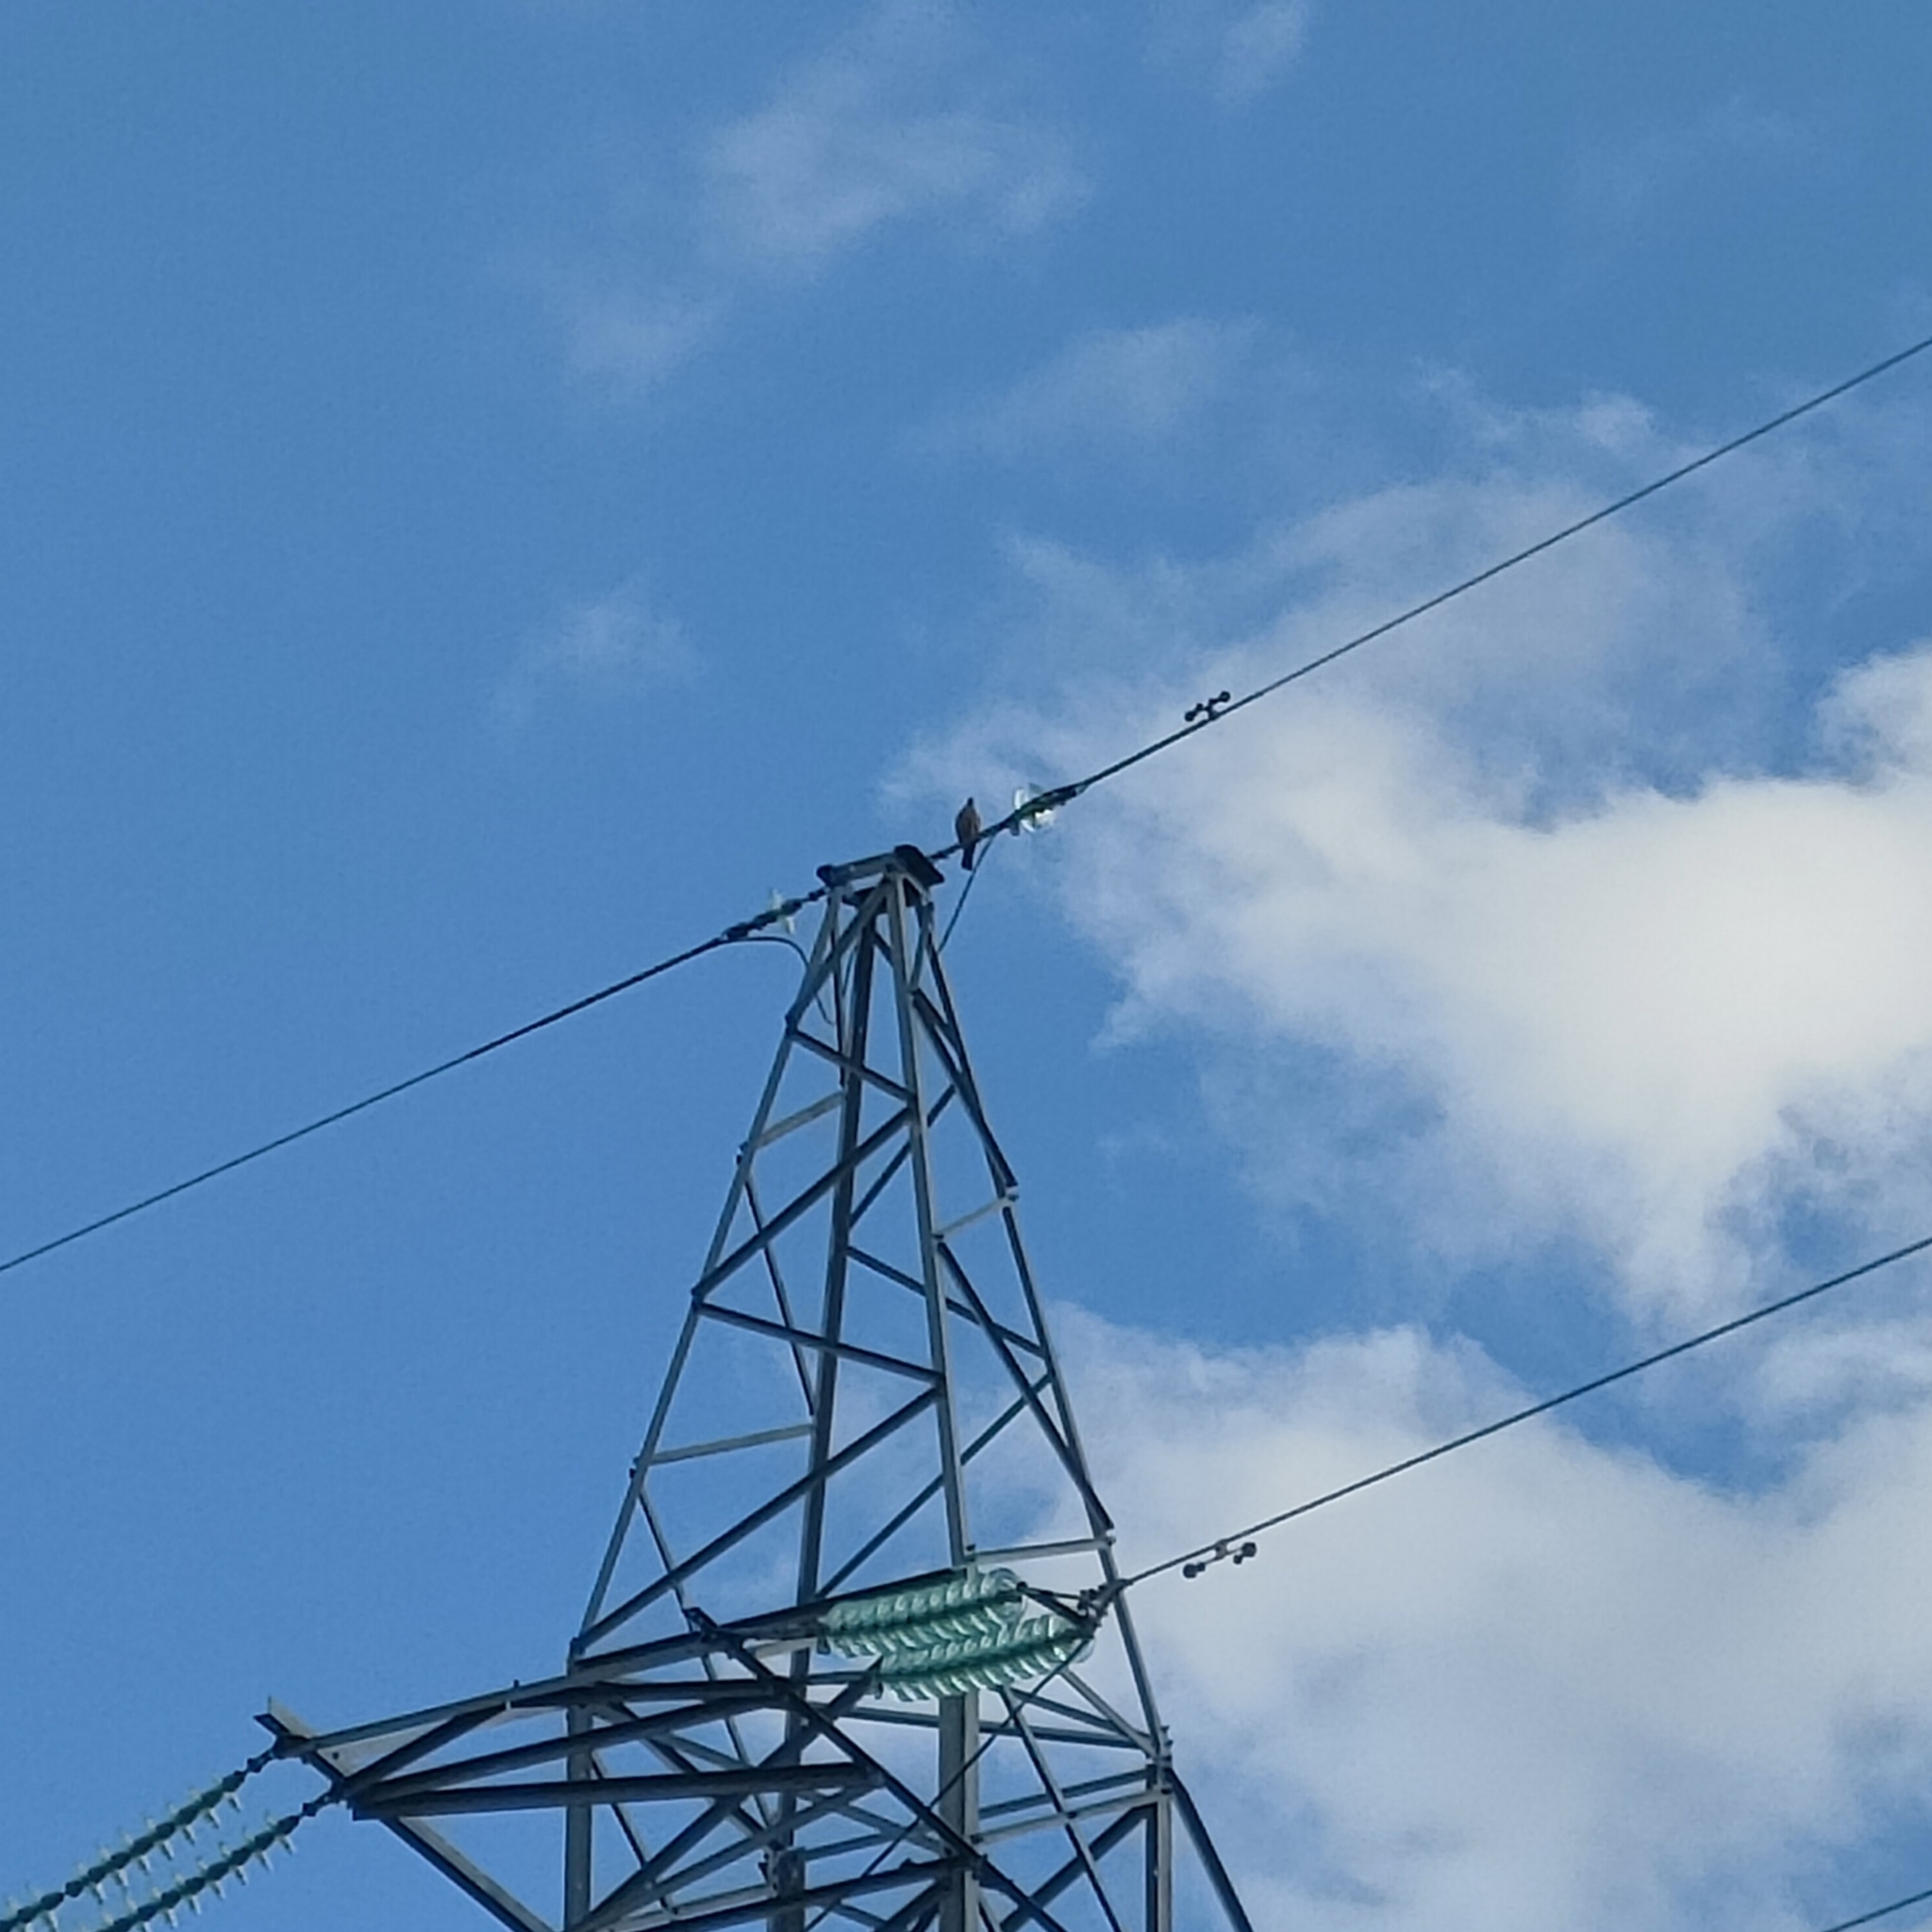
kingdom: Animalia
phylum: Chordata
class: Aves
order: Columbiformes
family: Columbidae
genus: Columba
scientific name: Columba palumbus
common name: Common wood pigeon
